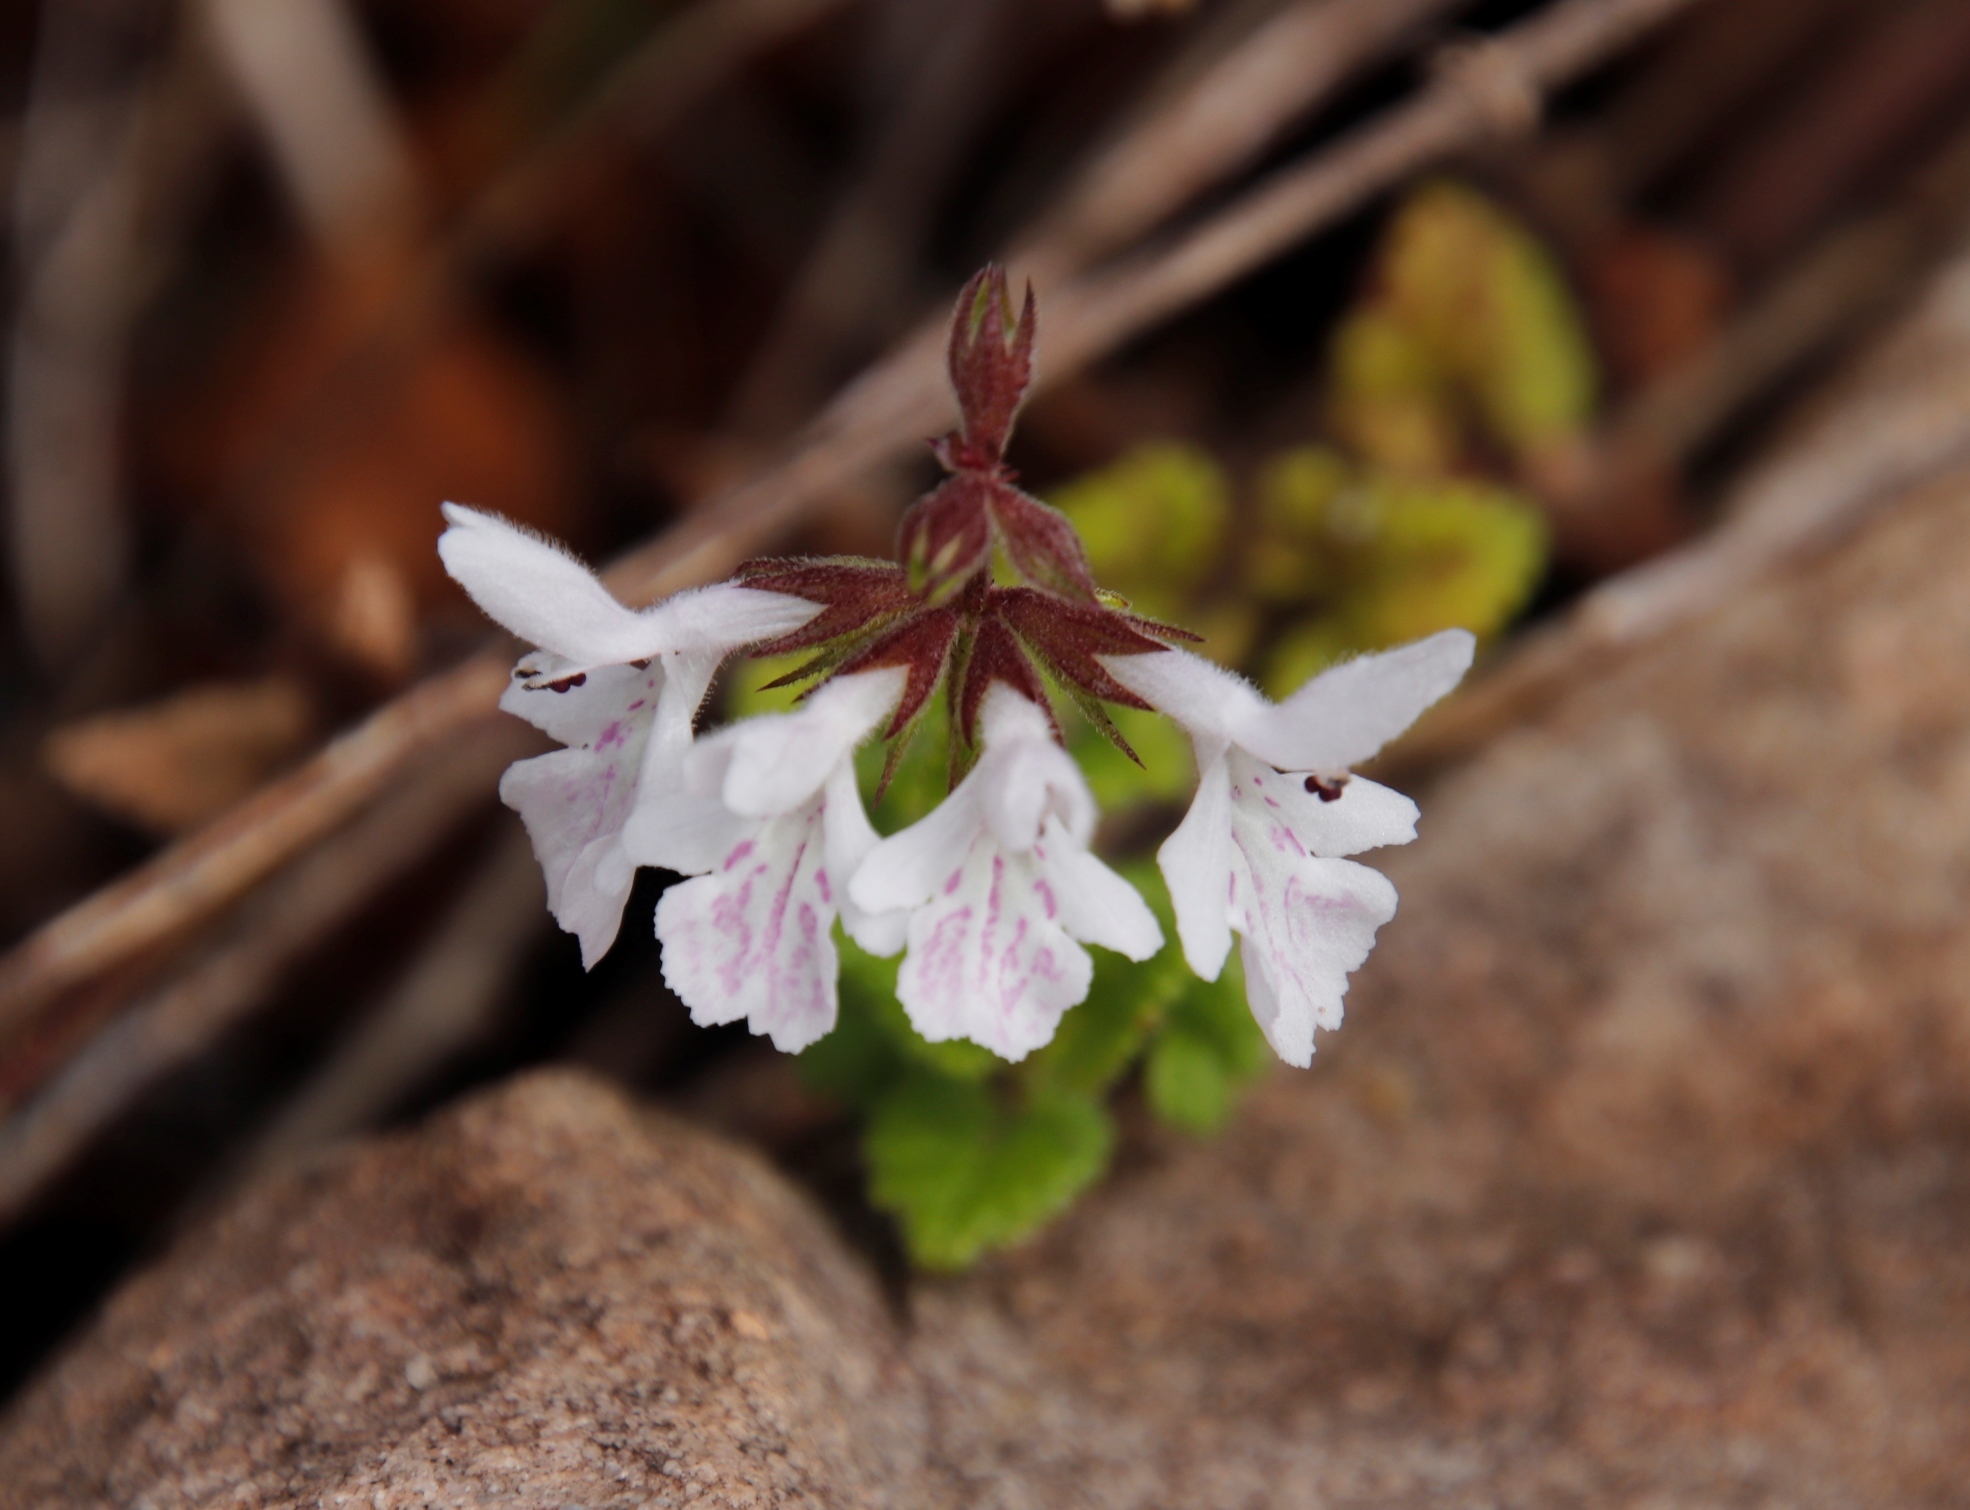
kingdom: Plantae
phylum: Tracheophyta
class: Magnoliopsida
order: Lamiales
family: Lamiaceae
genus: Stachys
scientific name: Stachys aethiopica
